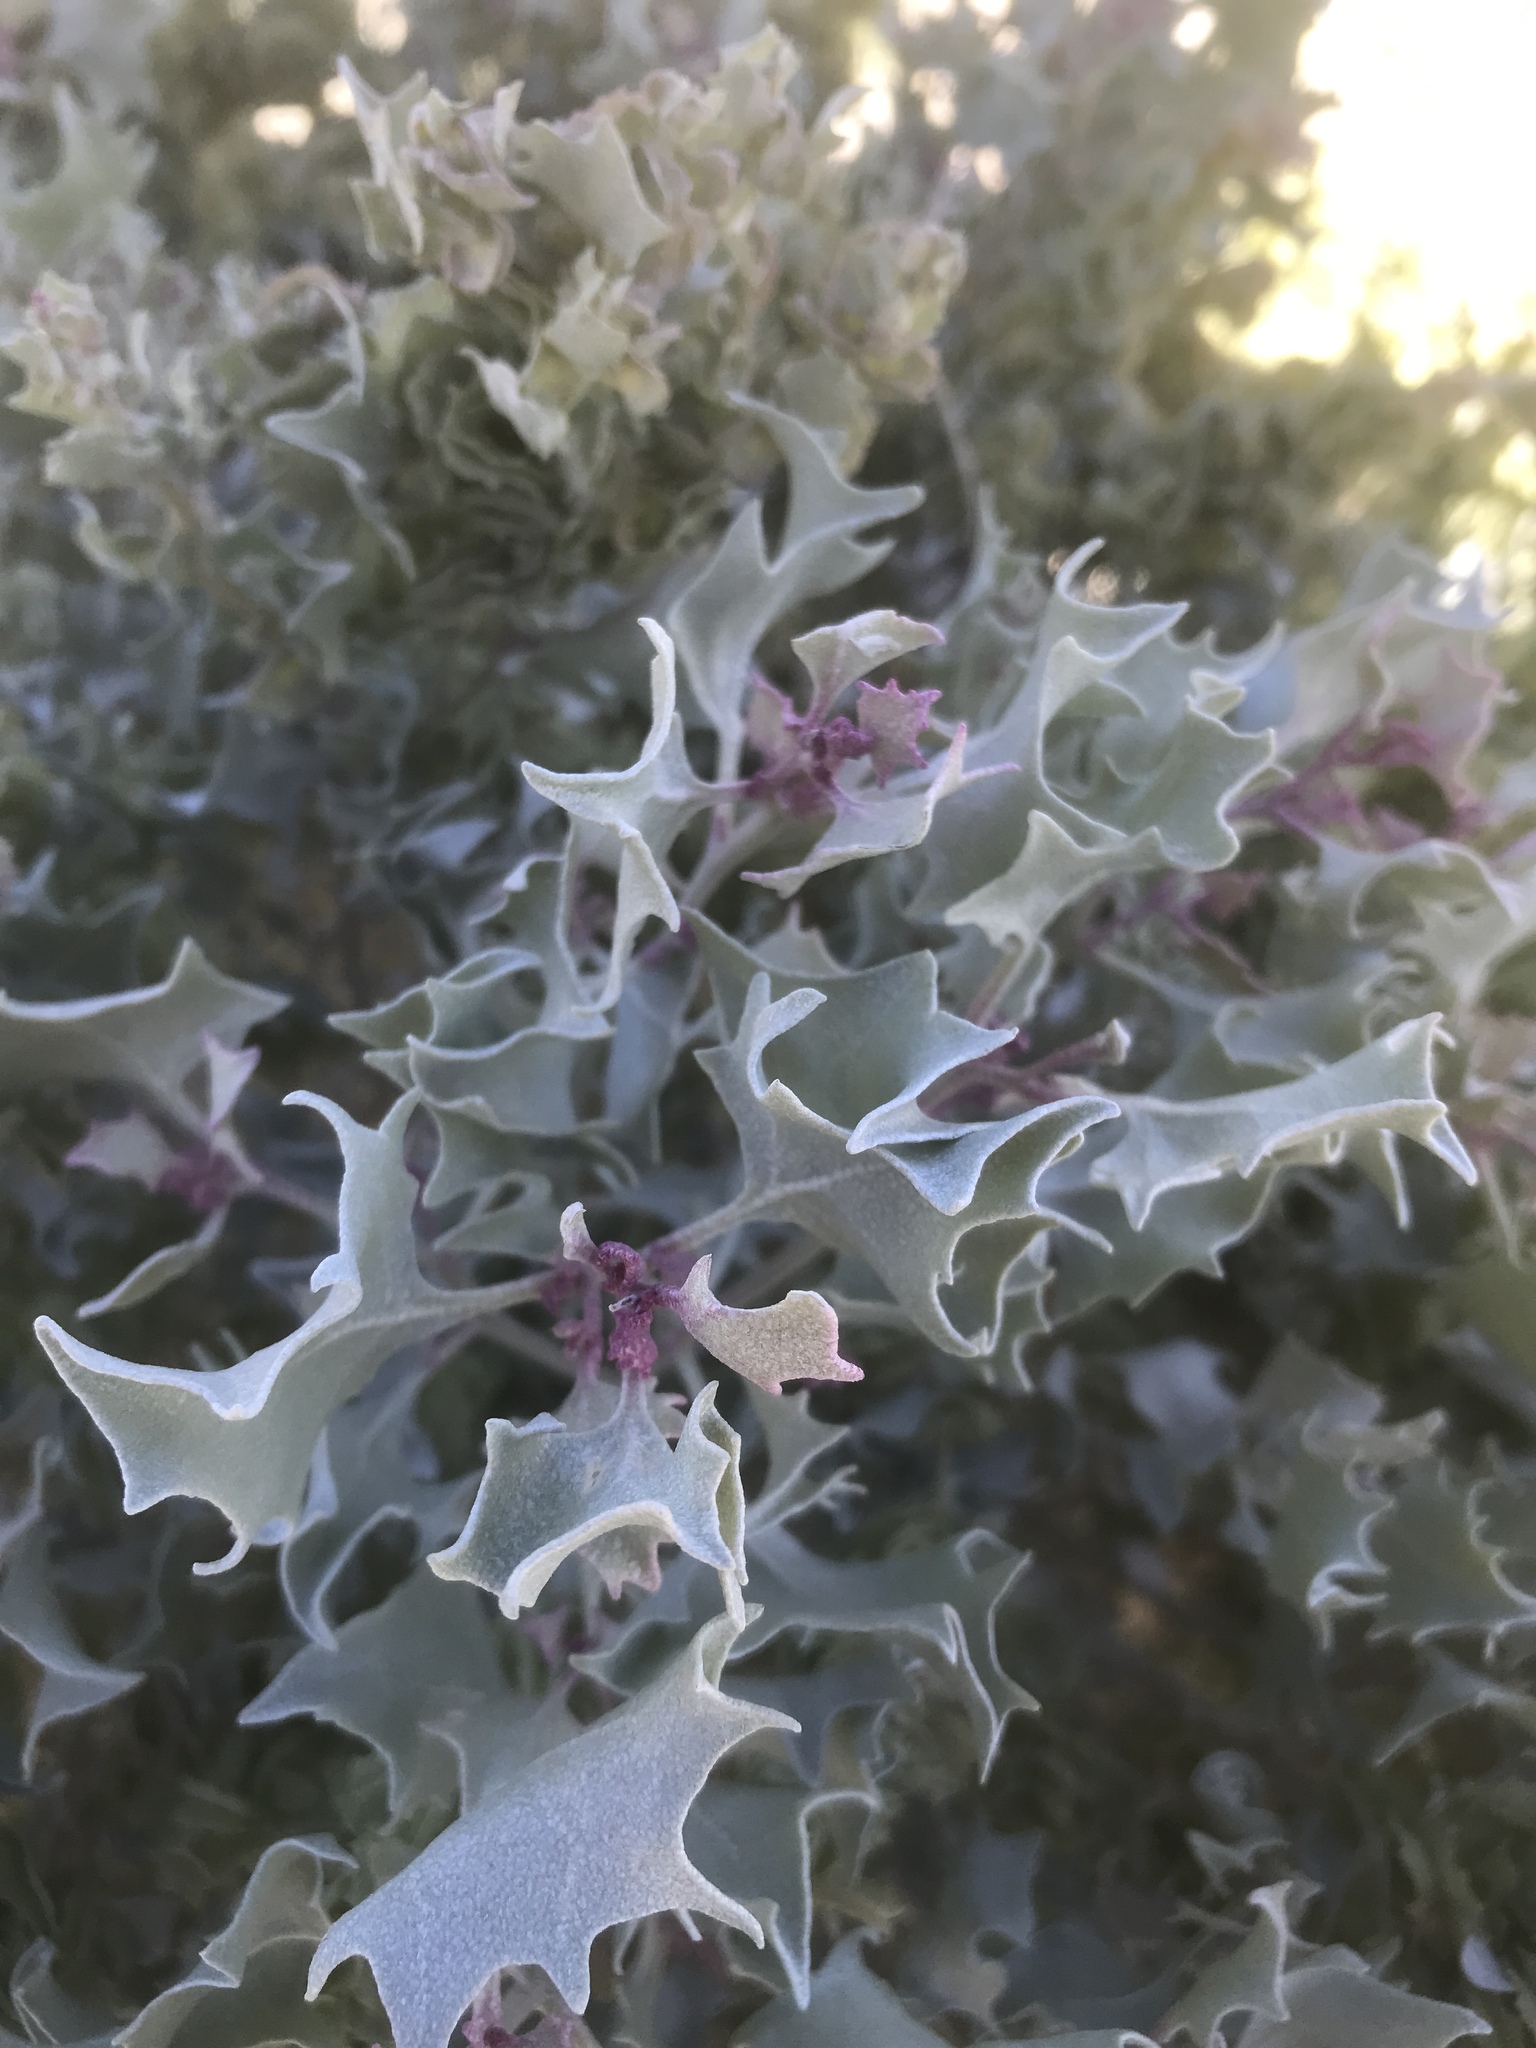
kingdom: Plantae
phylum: Tracheophyta
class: Magnoliopsida
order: Caryophyllales
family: Amaranthaceae
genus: Atriplex
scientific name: Atriplex hymenelytra
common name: Desert-holly
